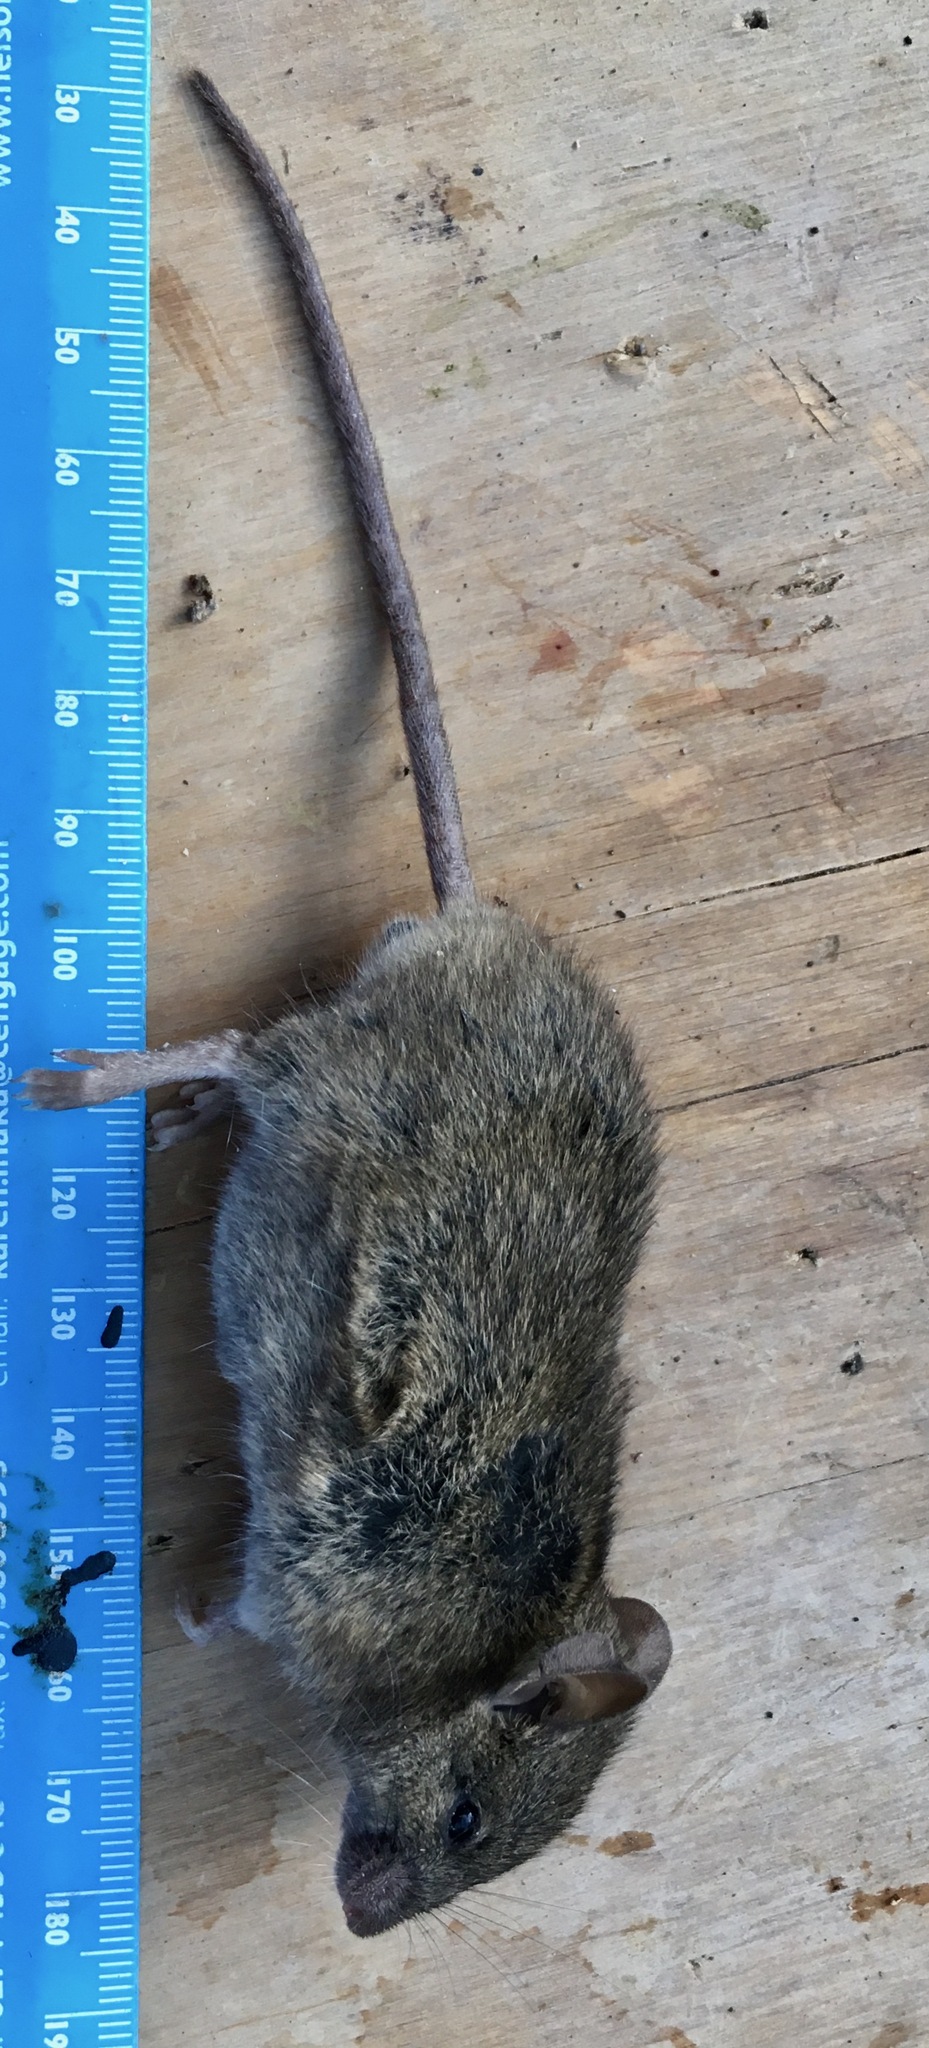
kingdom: Animalia
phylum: Chordata
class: Mammalia
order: Rodentia
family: Muridae
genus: Mus
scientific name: Mus musculus
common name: House mouse
